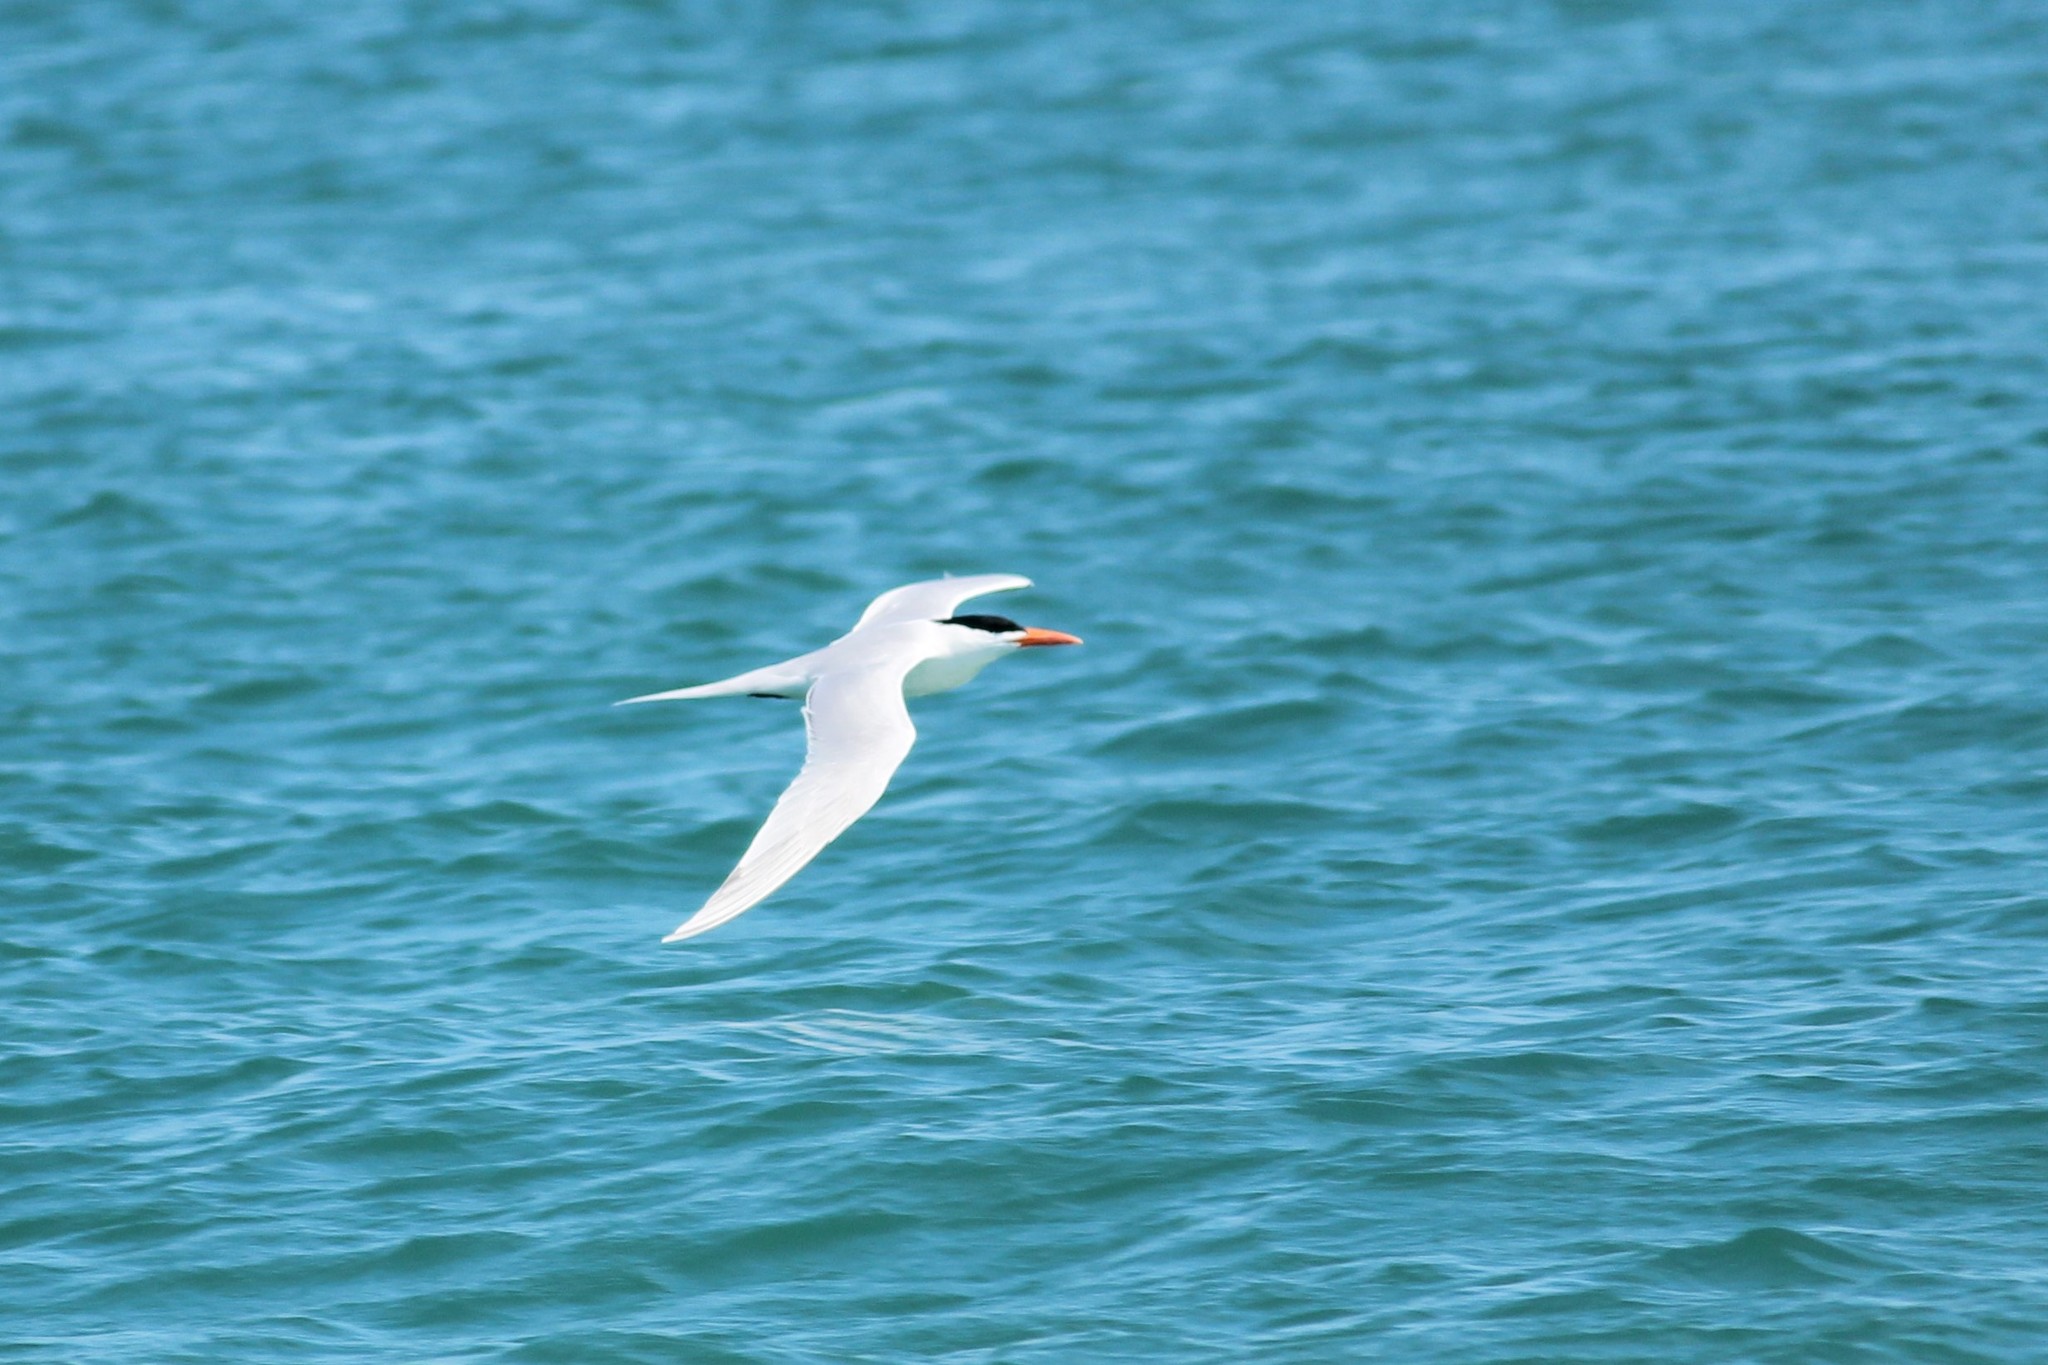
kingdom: Animalia
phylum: Chordata
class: Aves
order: Charadriiformes
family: Laridae
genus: Thalasseus
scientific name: Thalasseus maximus
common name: Royal tern
